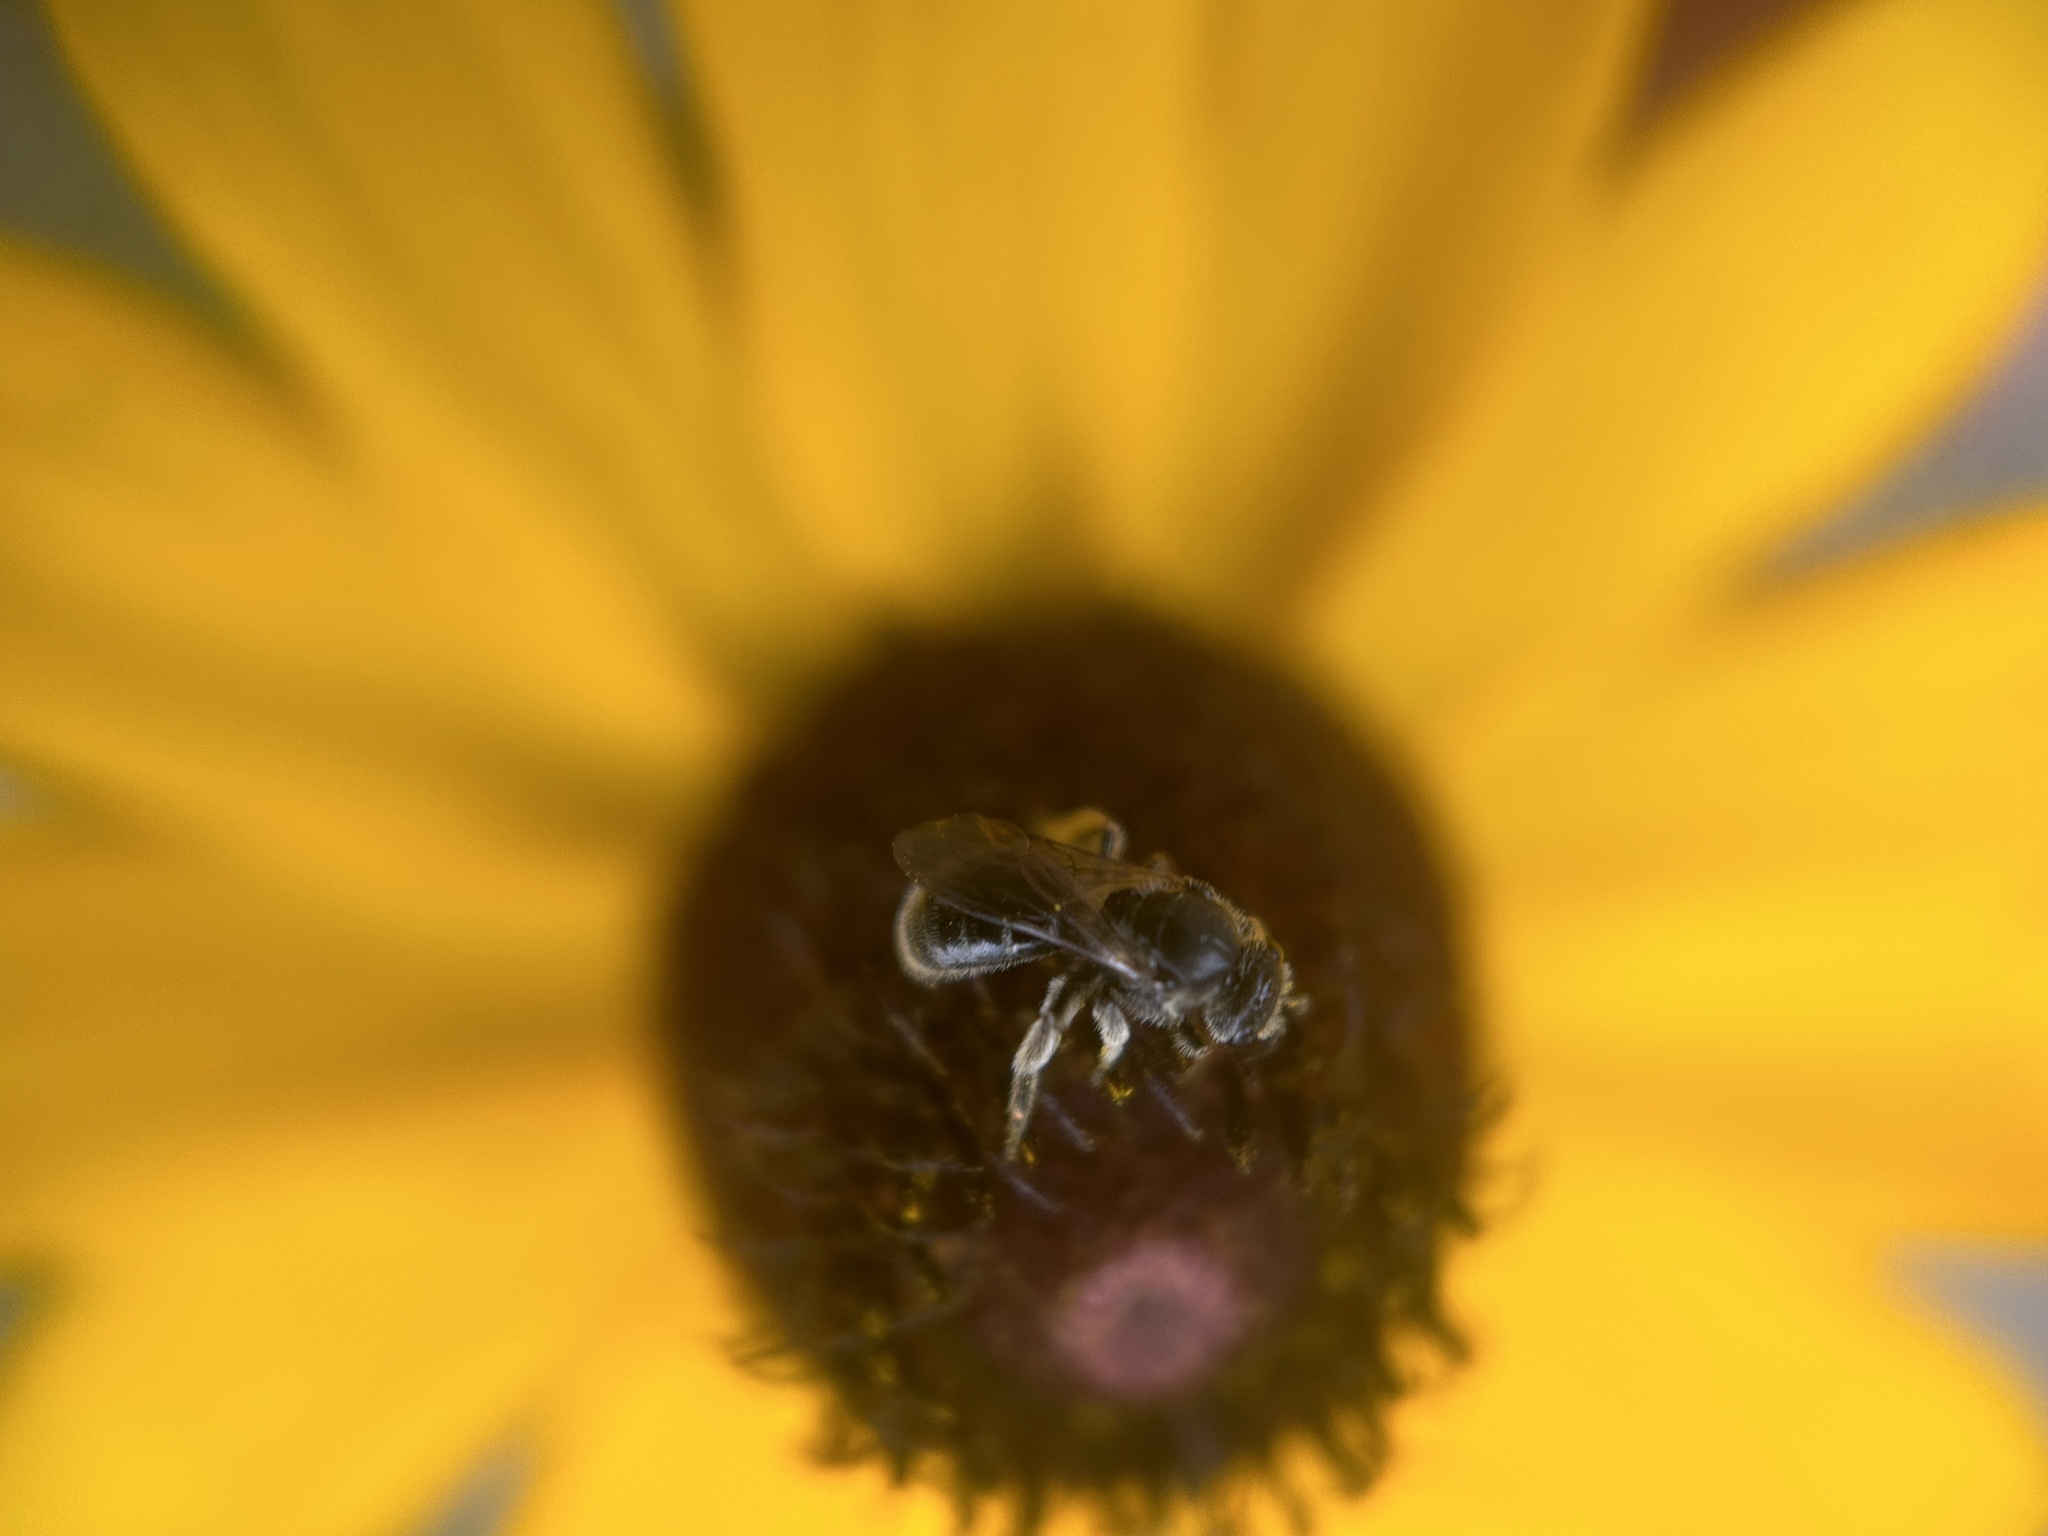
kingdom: Animalia
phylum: Arthropoda
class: Insecta
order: Hymenoptera
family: Halictidae
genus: Lasioglossum
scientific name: Lasioglossum pectorale
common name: Rugose-chested sweat bee
